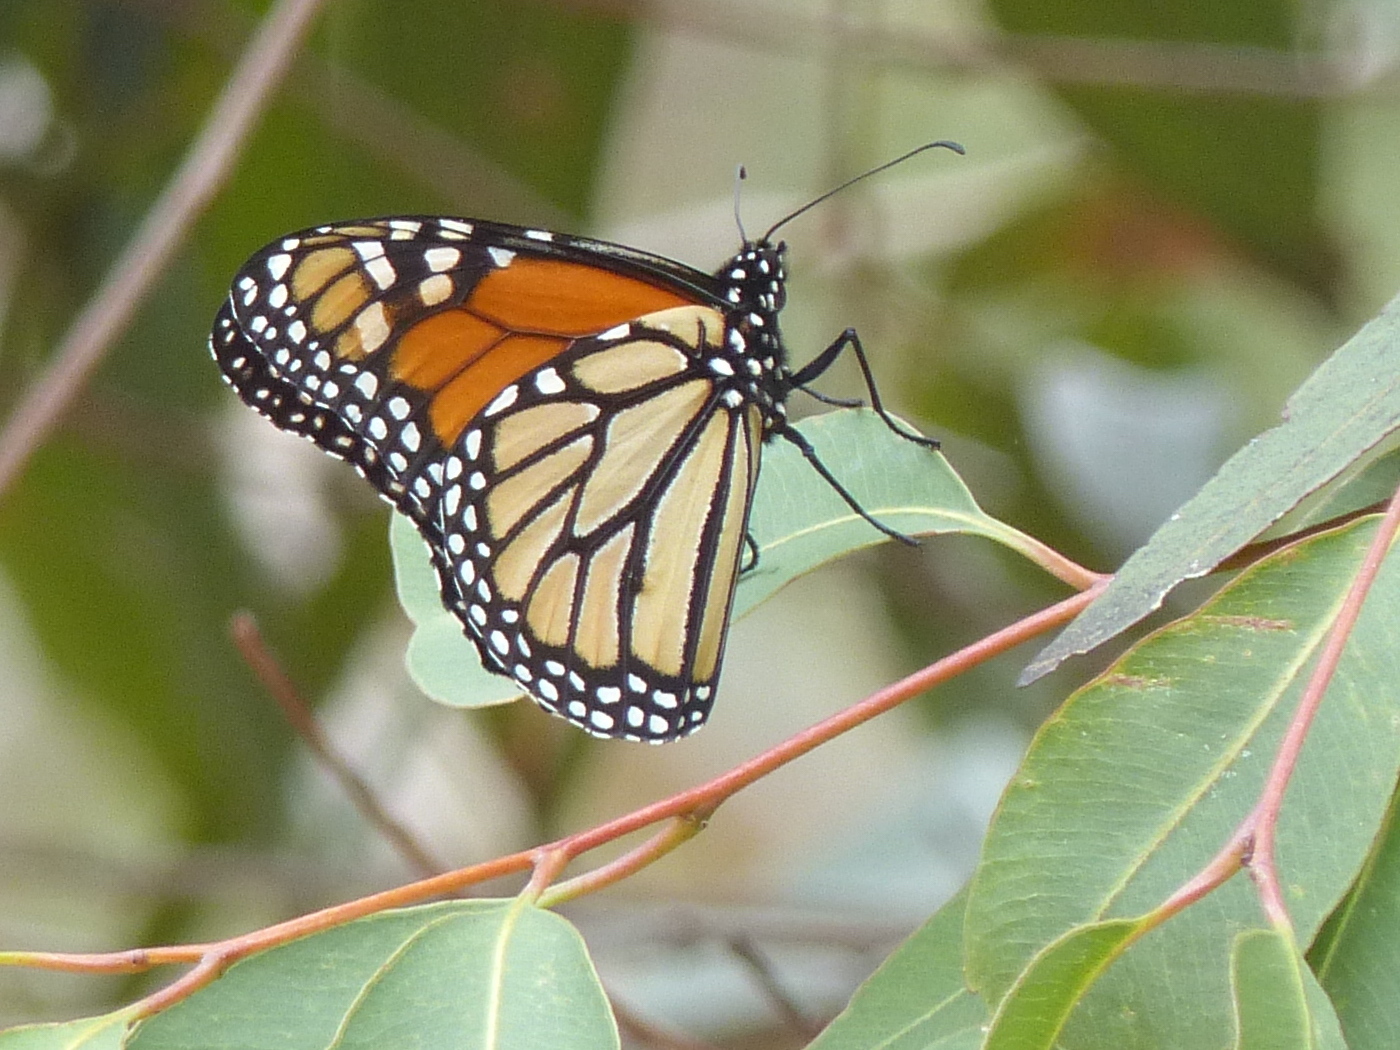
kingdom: Animalia
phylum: Arthropoda
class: Insecta
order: Lepidoptera
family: Nymphalidae
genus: Danaus
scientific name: Danaus plexippus
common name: Monarch
